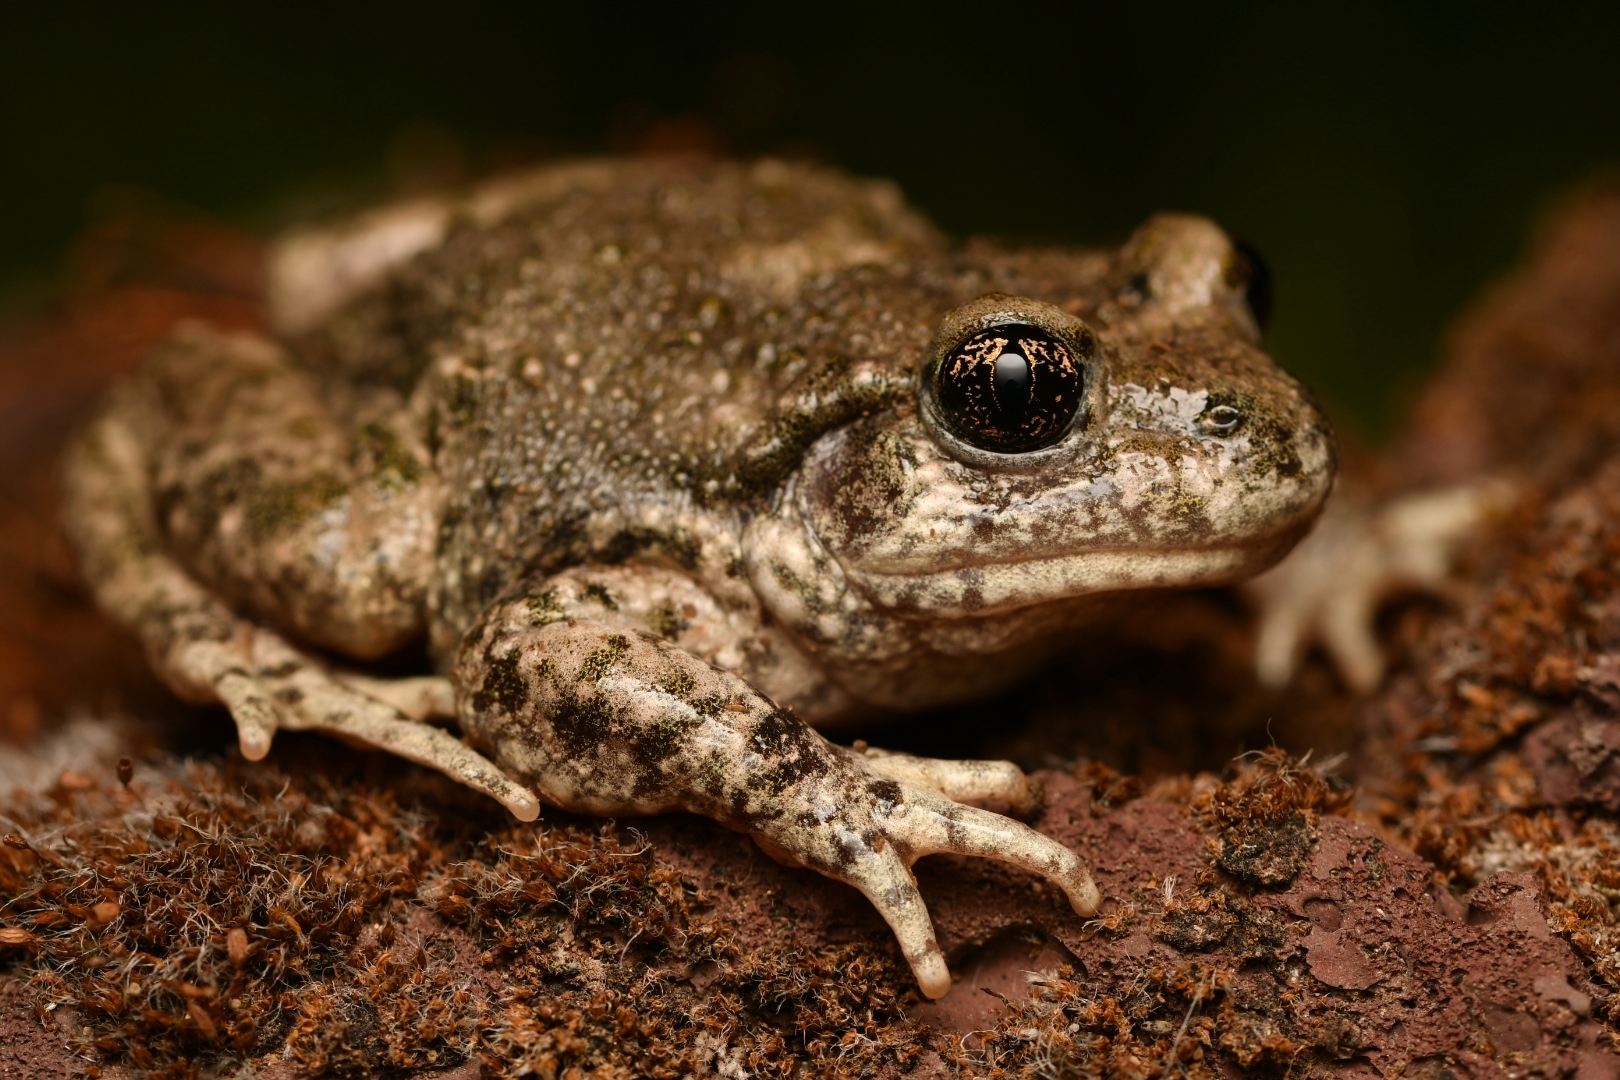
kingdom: Animalia
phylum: Chordata
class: Amphibia
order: Anura
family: Alytidae
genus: Alytes
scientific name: Alytes obstetricans
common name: Midwife toad
